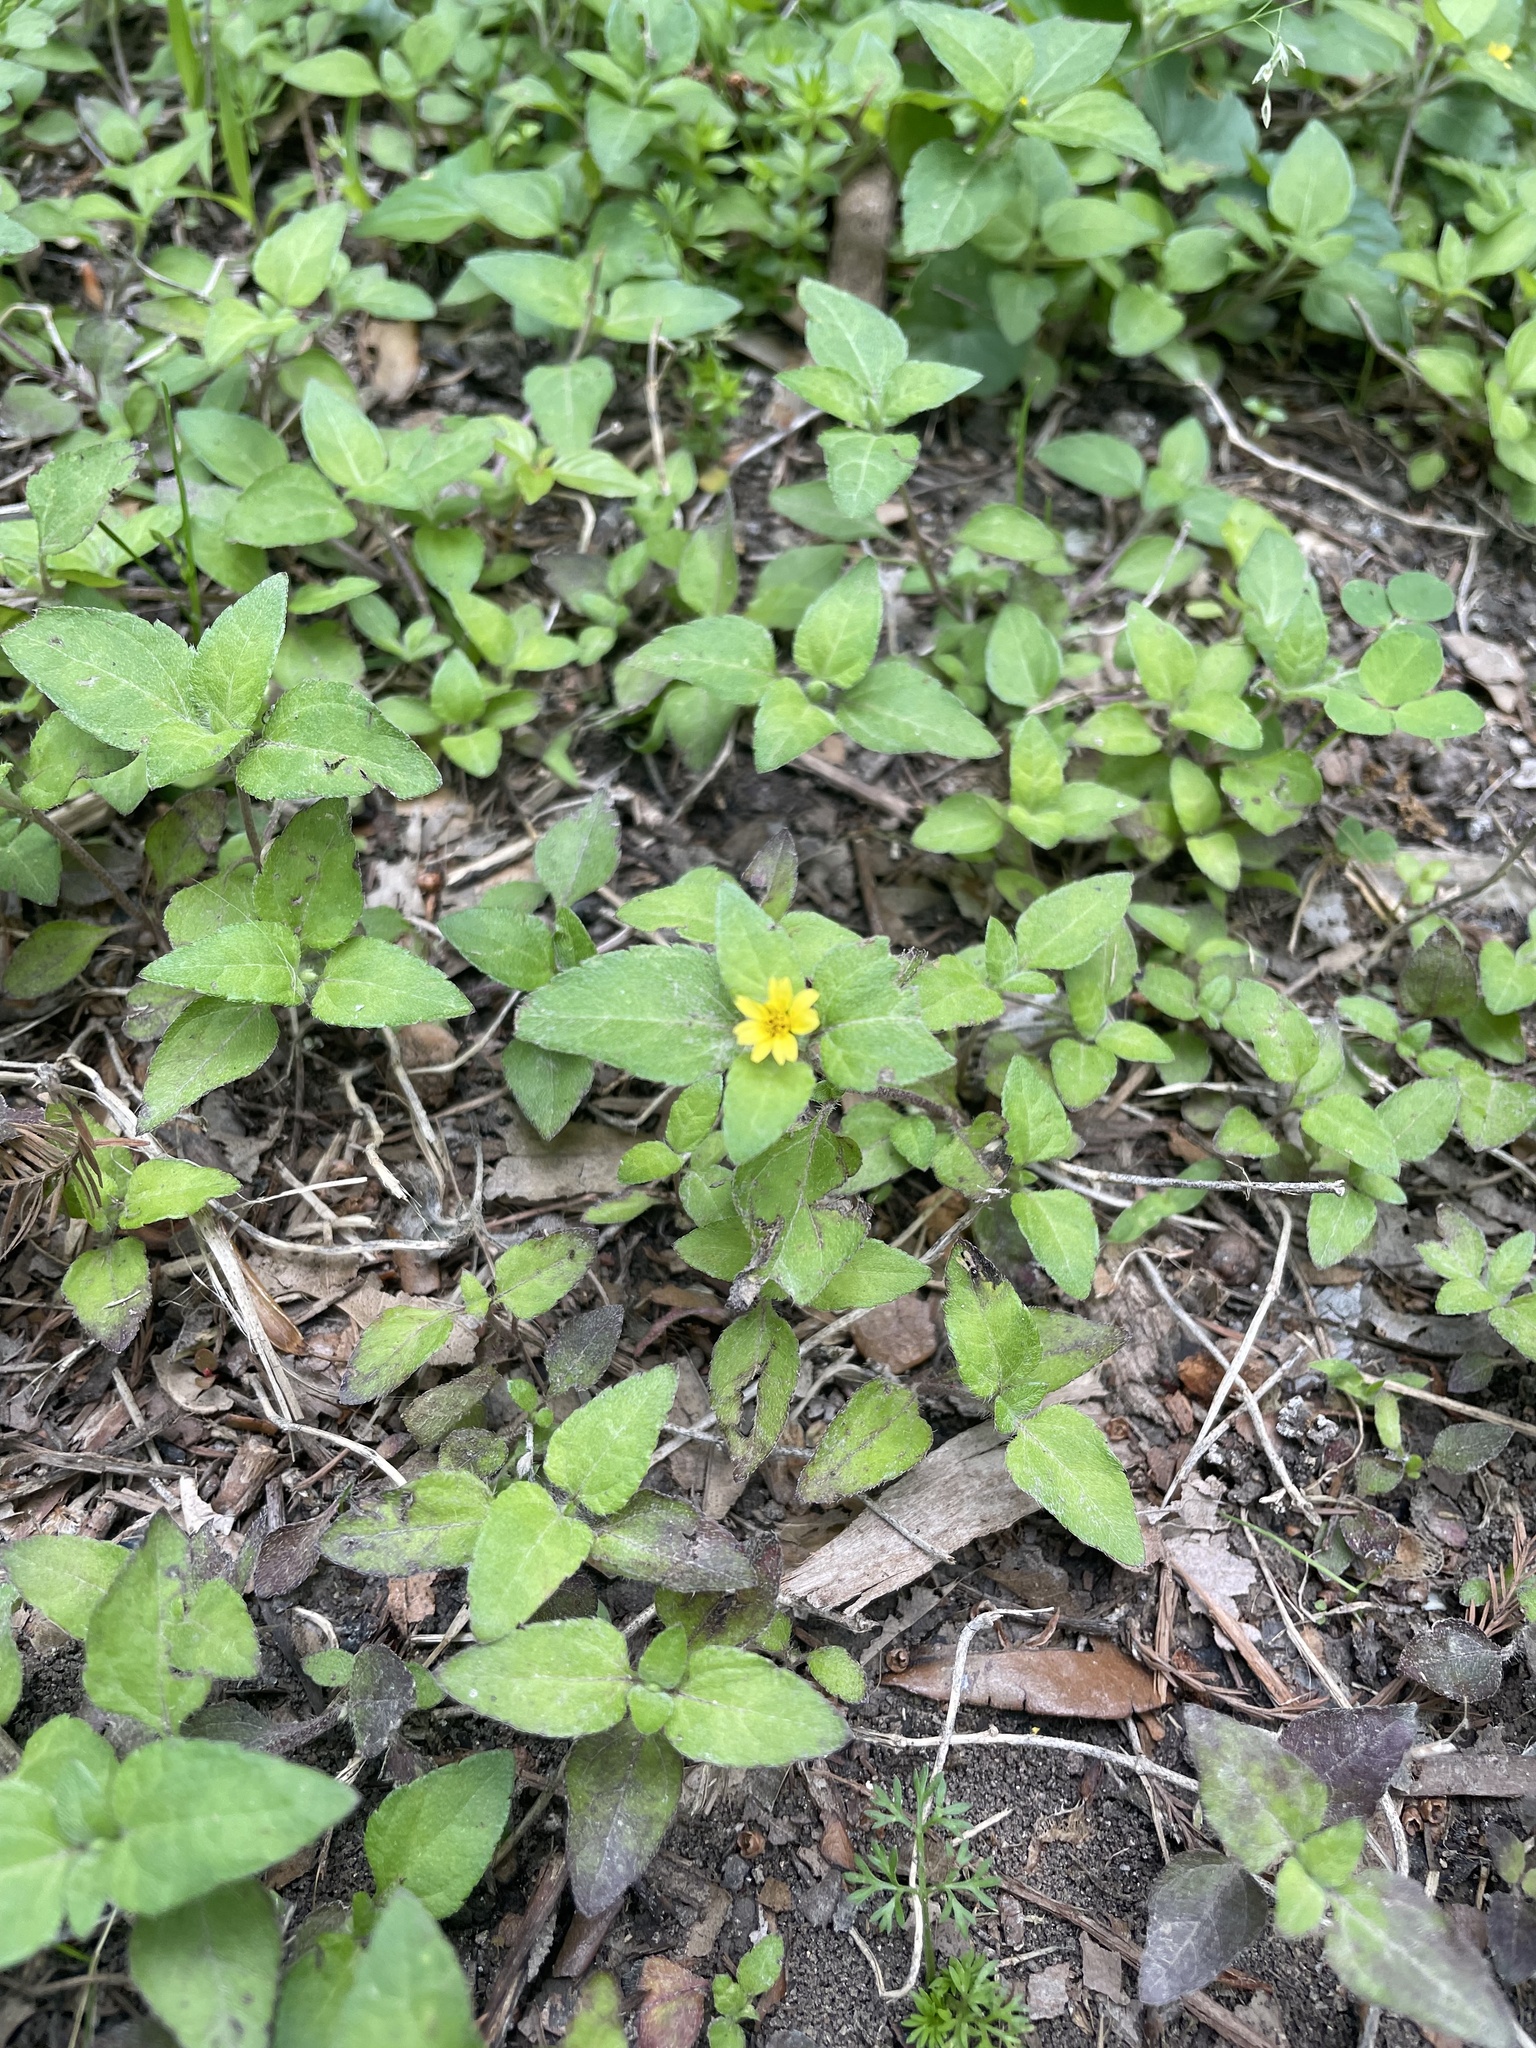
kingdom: Plantae
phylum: Tracheophyta
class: Magnoliopsida
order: Asterales
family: Asteraceae
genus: Calyptocarpus
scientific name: Calyptocarpus vialis
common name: Straggler daisy
